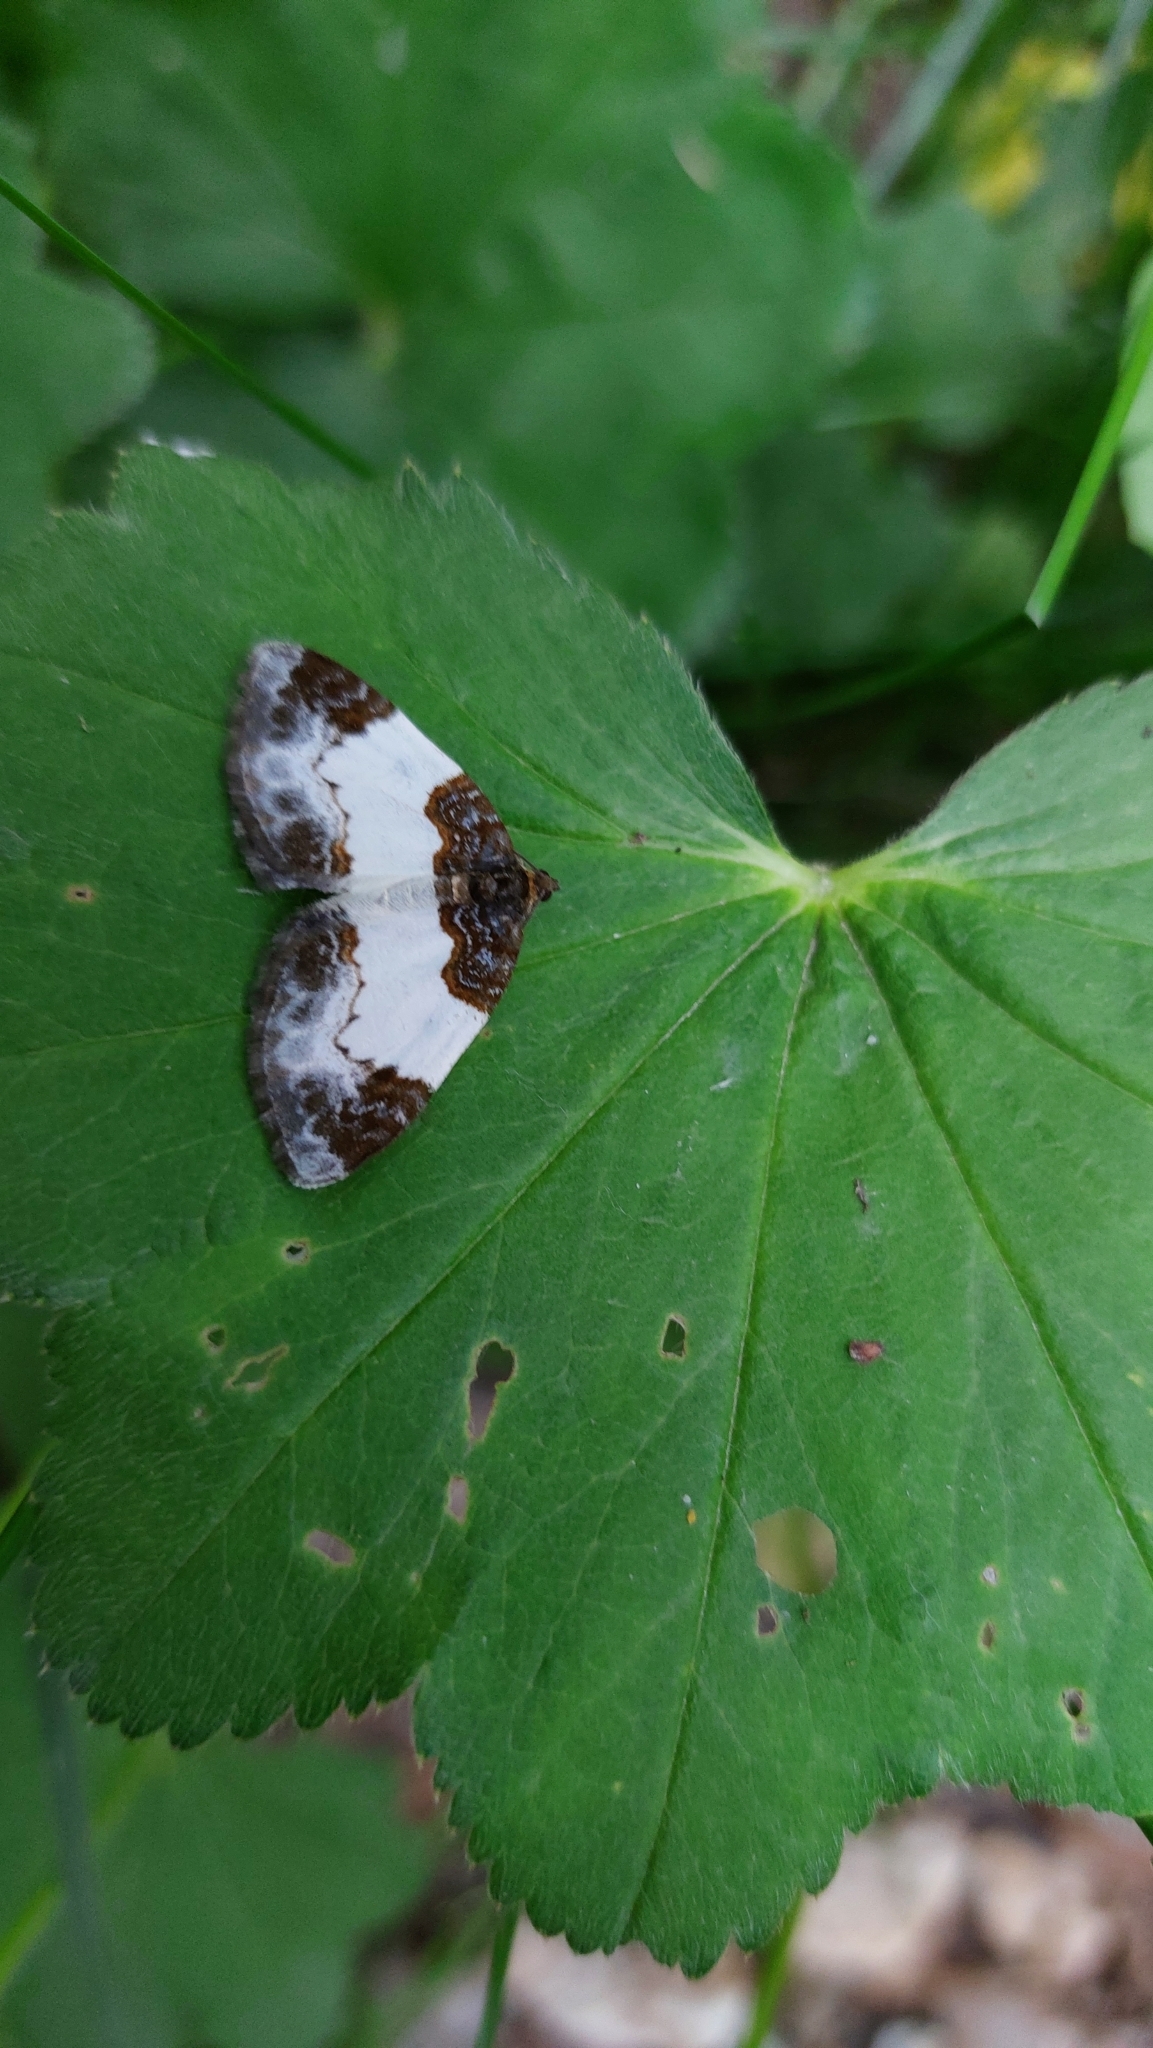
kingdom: Animalia
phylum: Arthropoda
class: Insecta
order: Lepidoptera
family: Geometridae
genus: Mesoleuca
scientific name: Mesoleuca albicillata
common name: Beautiful carpet
